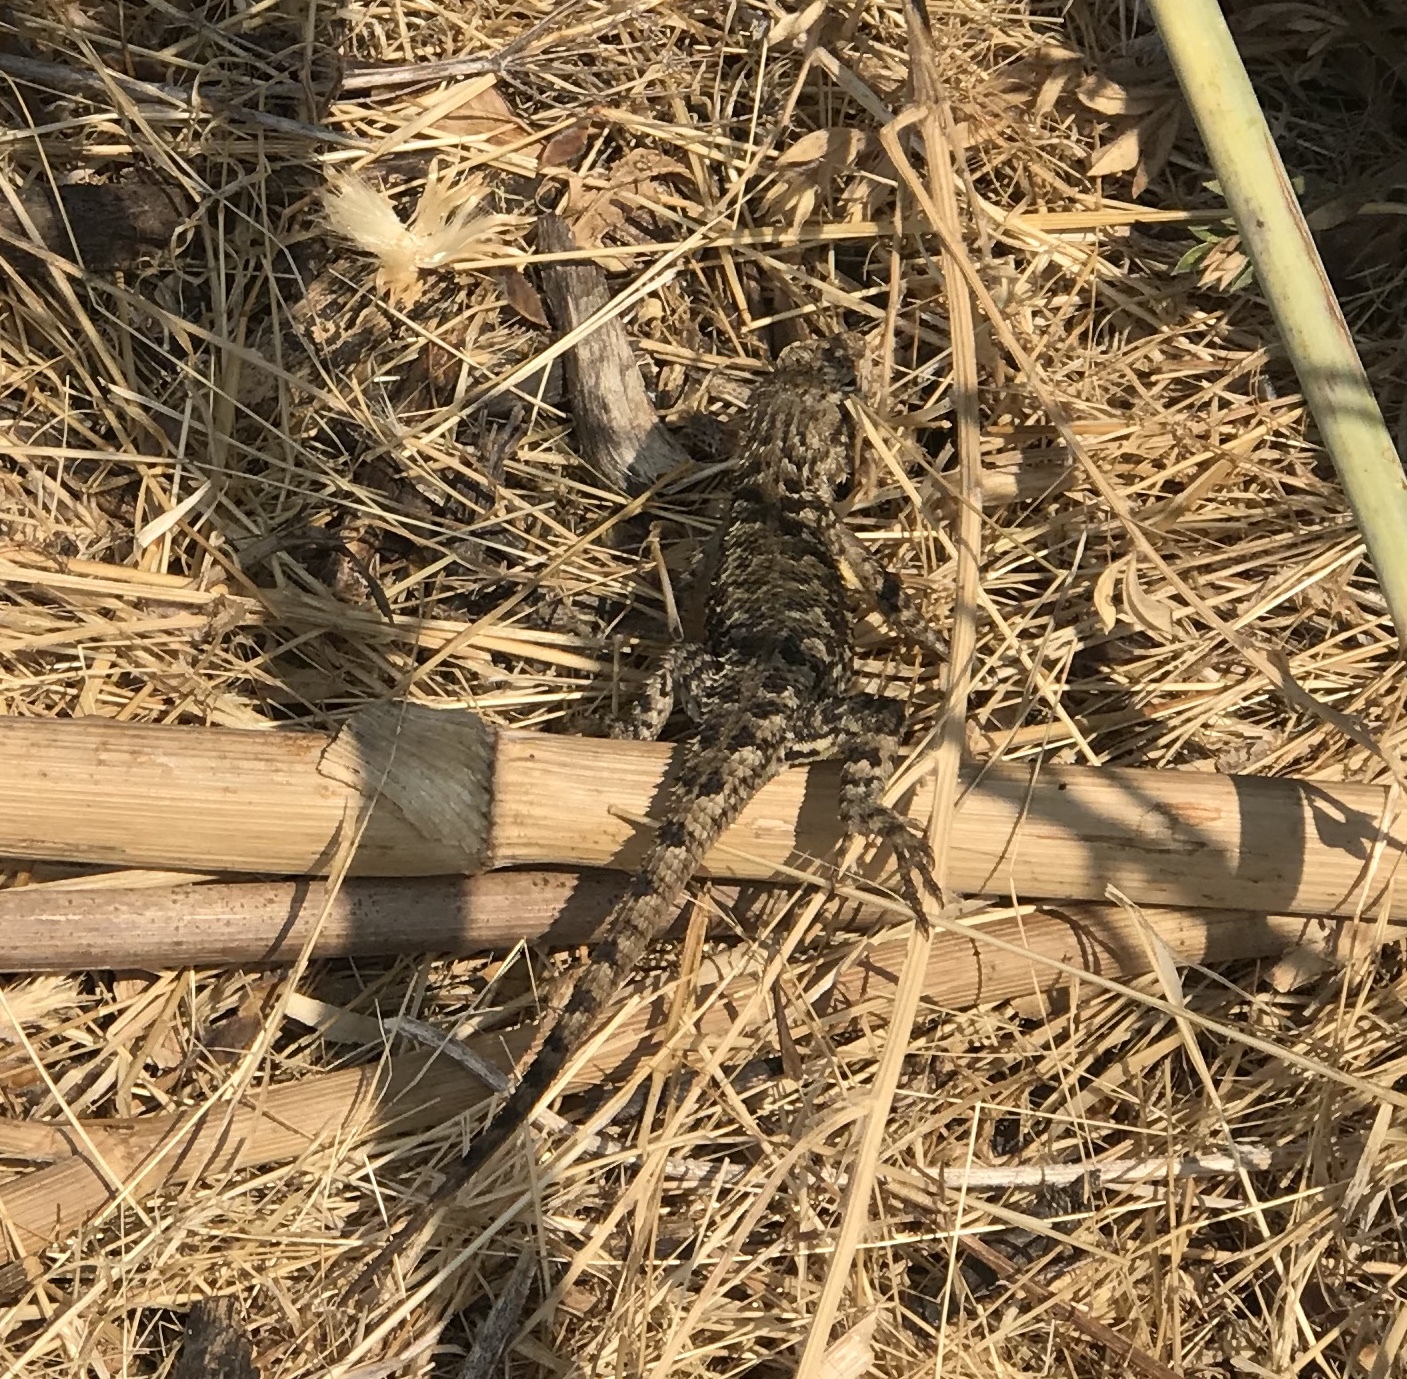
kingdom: Animalia
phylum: Chordata
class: Squamata
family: Phrynosomatidae
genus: Sceloporus
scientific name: Sceloporus occidentalis
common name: Western fence lizard
